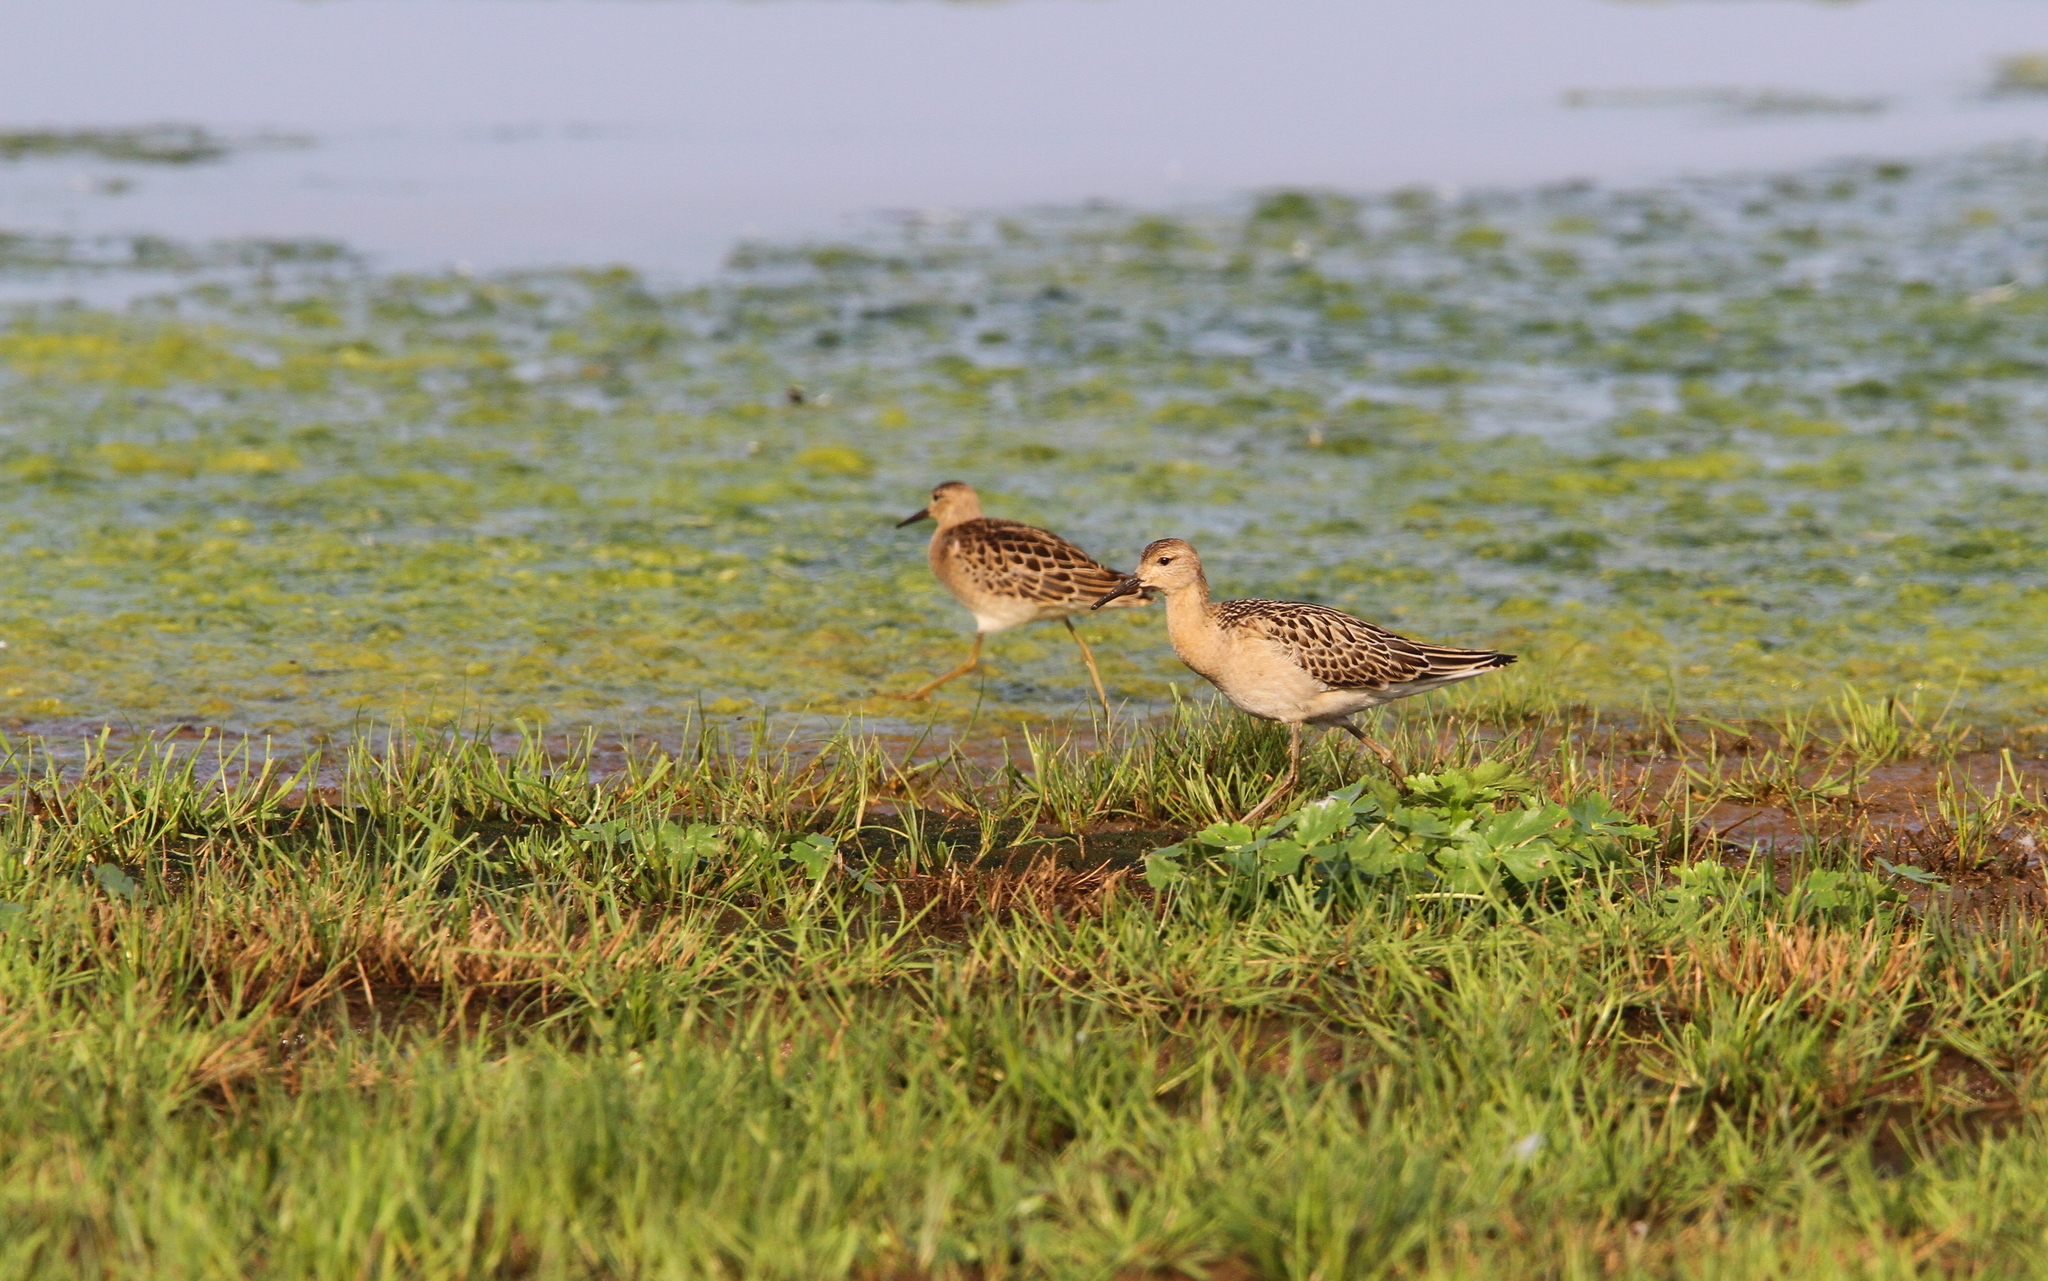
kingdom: Animalia
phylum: Chordata
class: Aves
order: Charadriiformes
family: Scolopacidae
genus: Calidris
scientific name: Calidris pugnax
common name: Ruff
